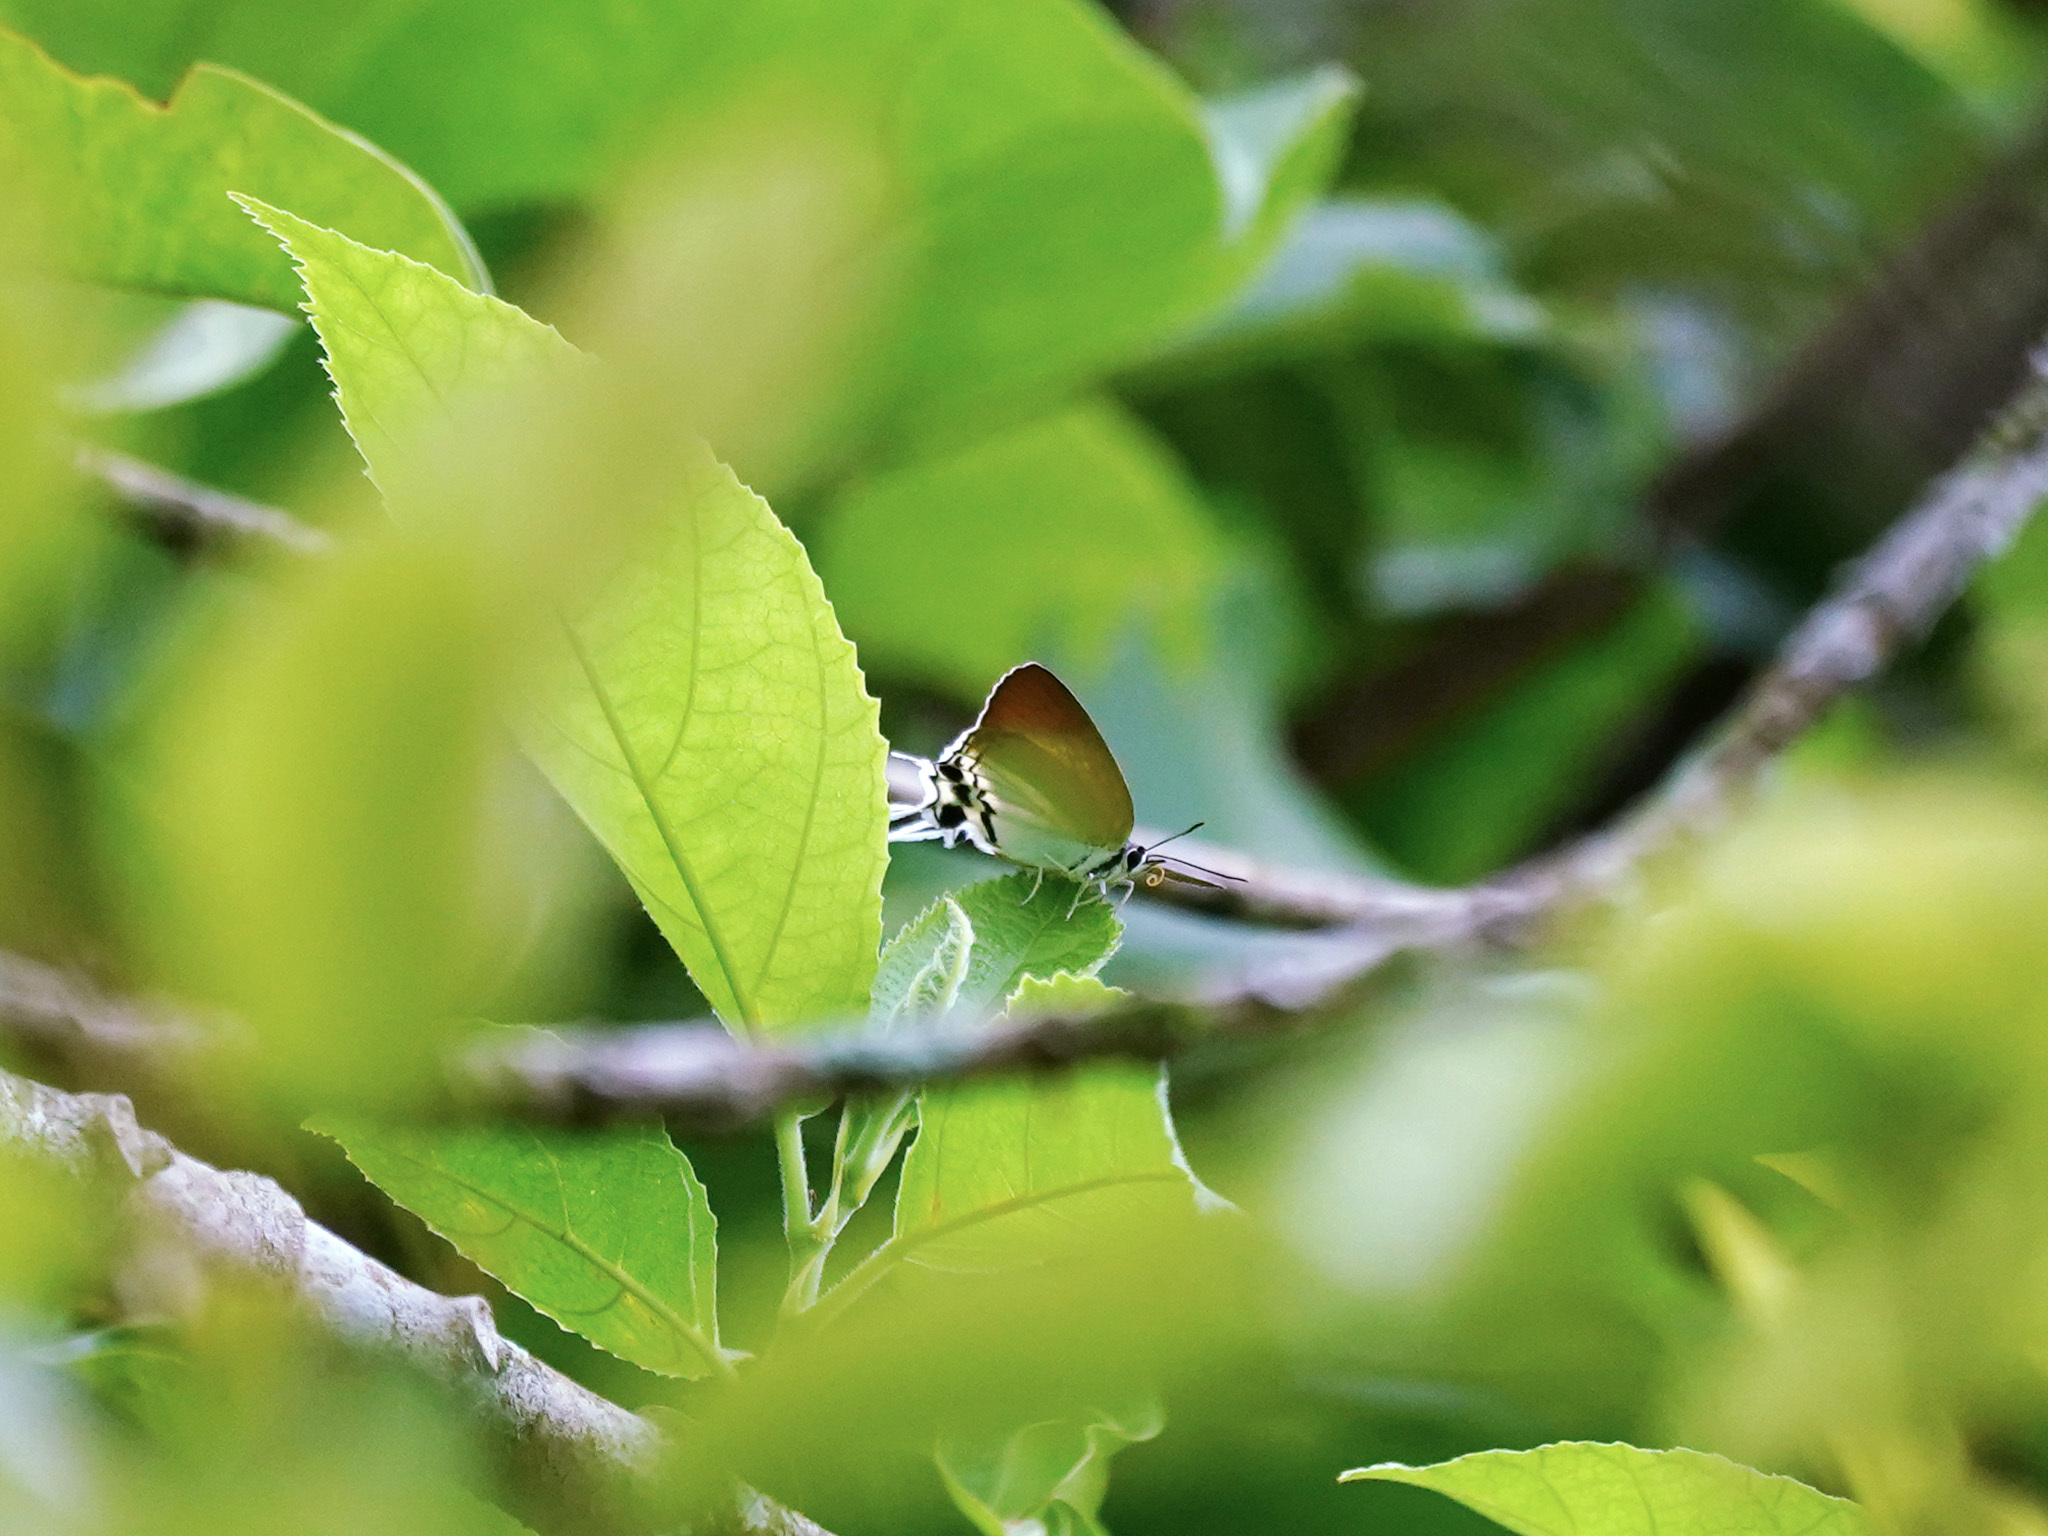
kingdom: Animalia
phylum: Arthropoda
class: Insecta
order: Lepidoptera
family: Lycaenidae
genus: Manto
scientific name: Manto hypoleuca
